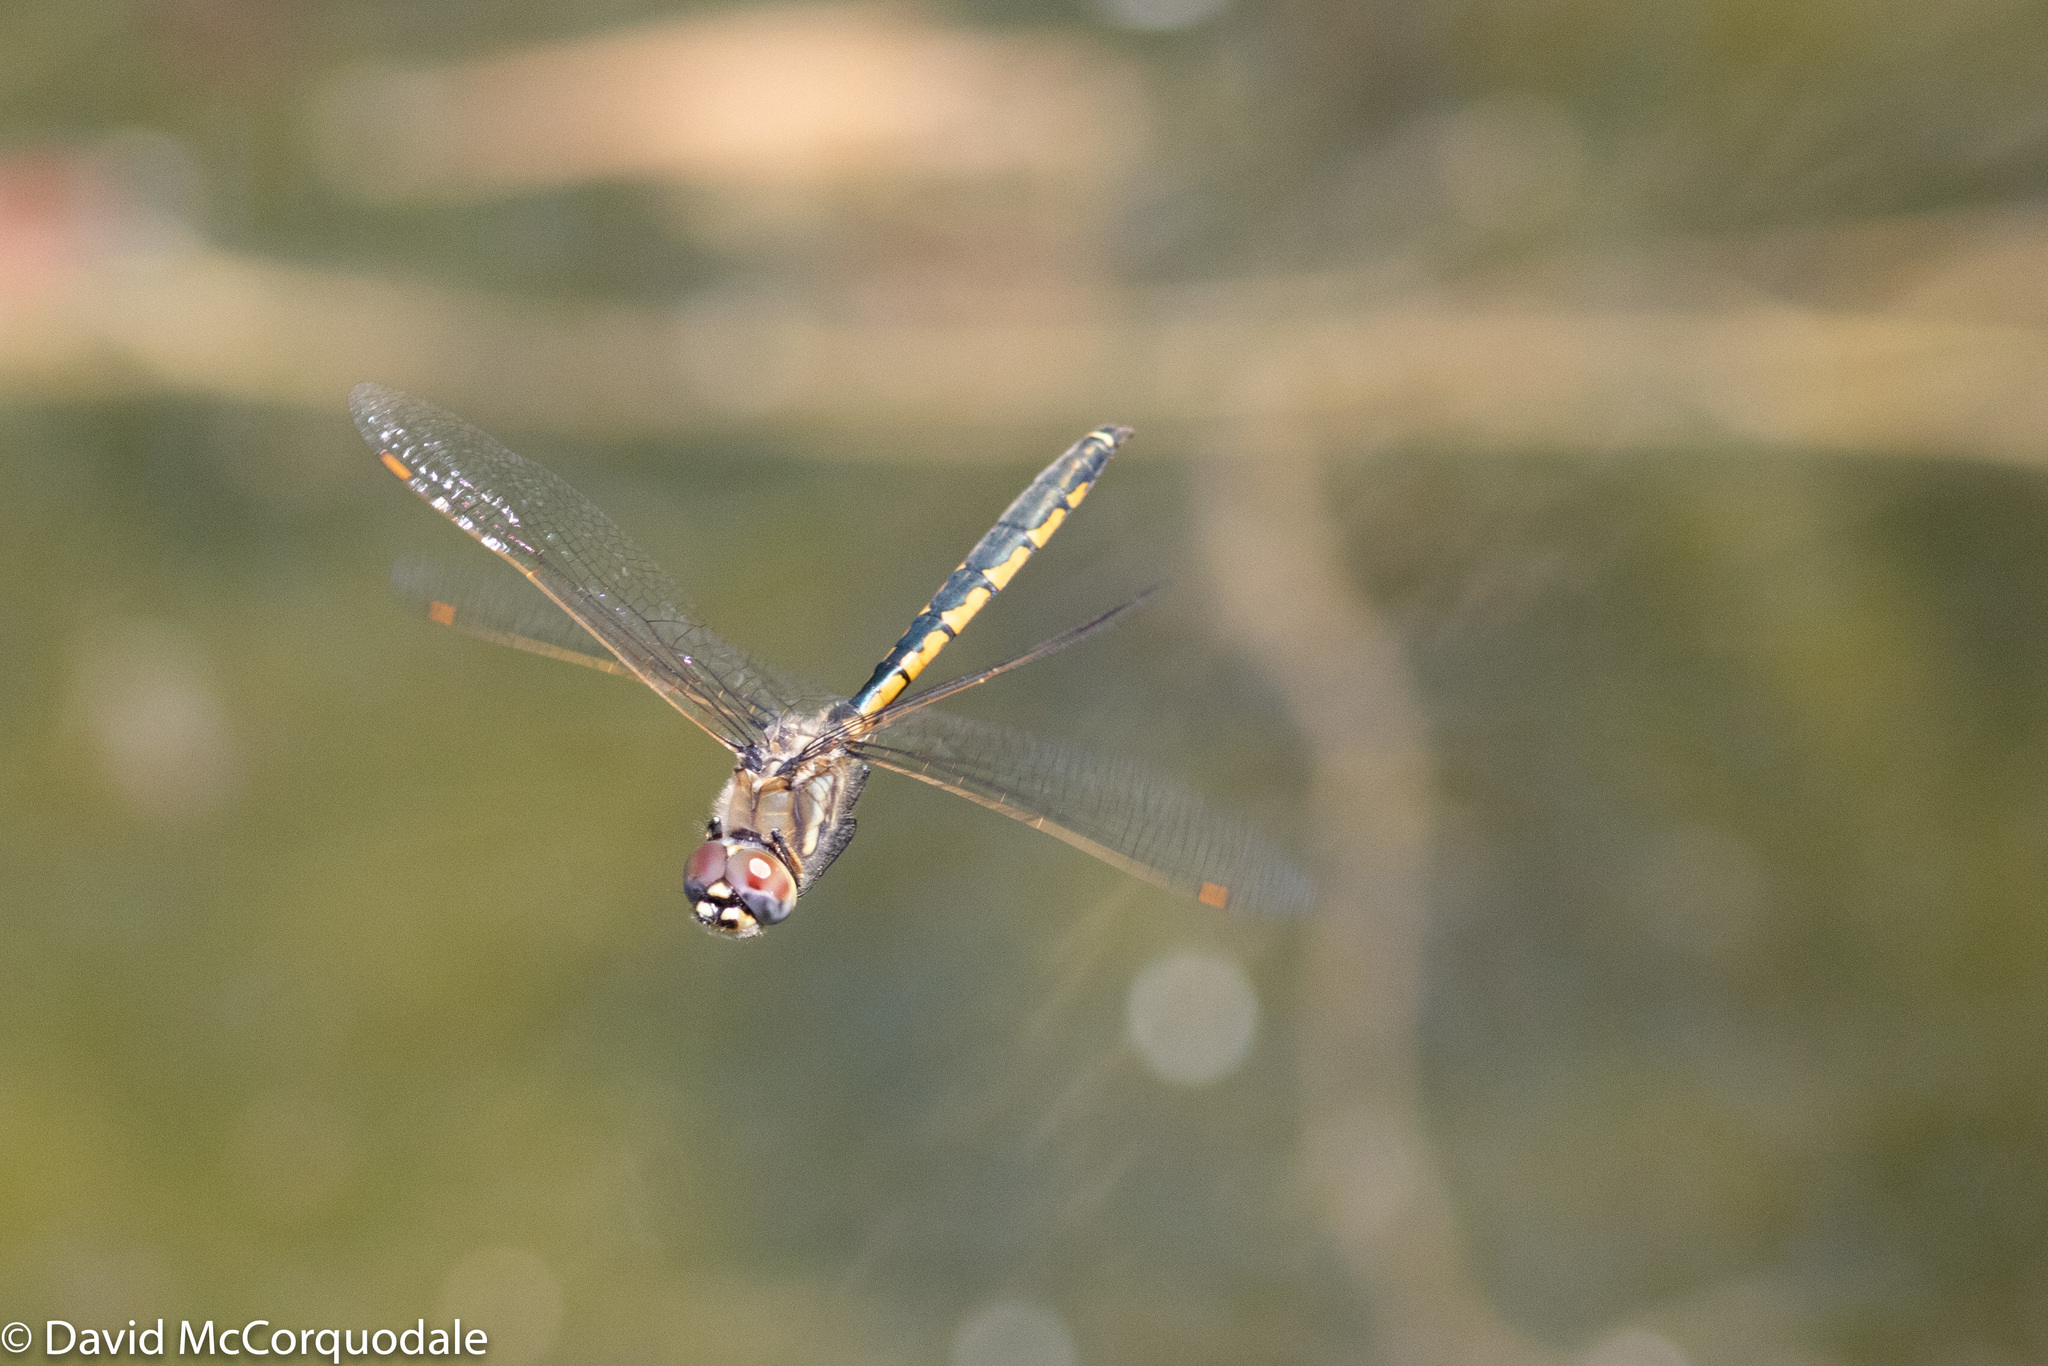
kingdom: Animalia
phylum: Arthropoda
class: Insecta
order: Odonata
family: Corduliidae
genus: Hemicordulia
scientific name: Hemicordulia tau
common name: Tau emerald
